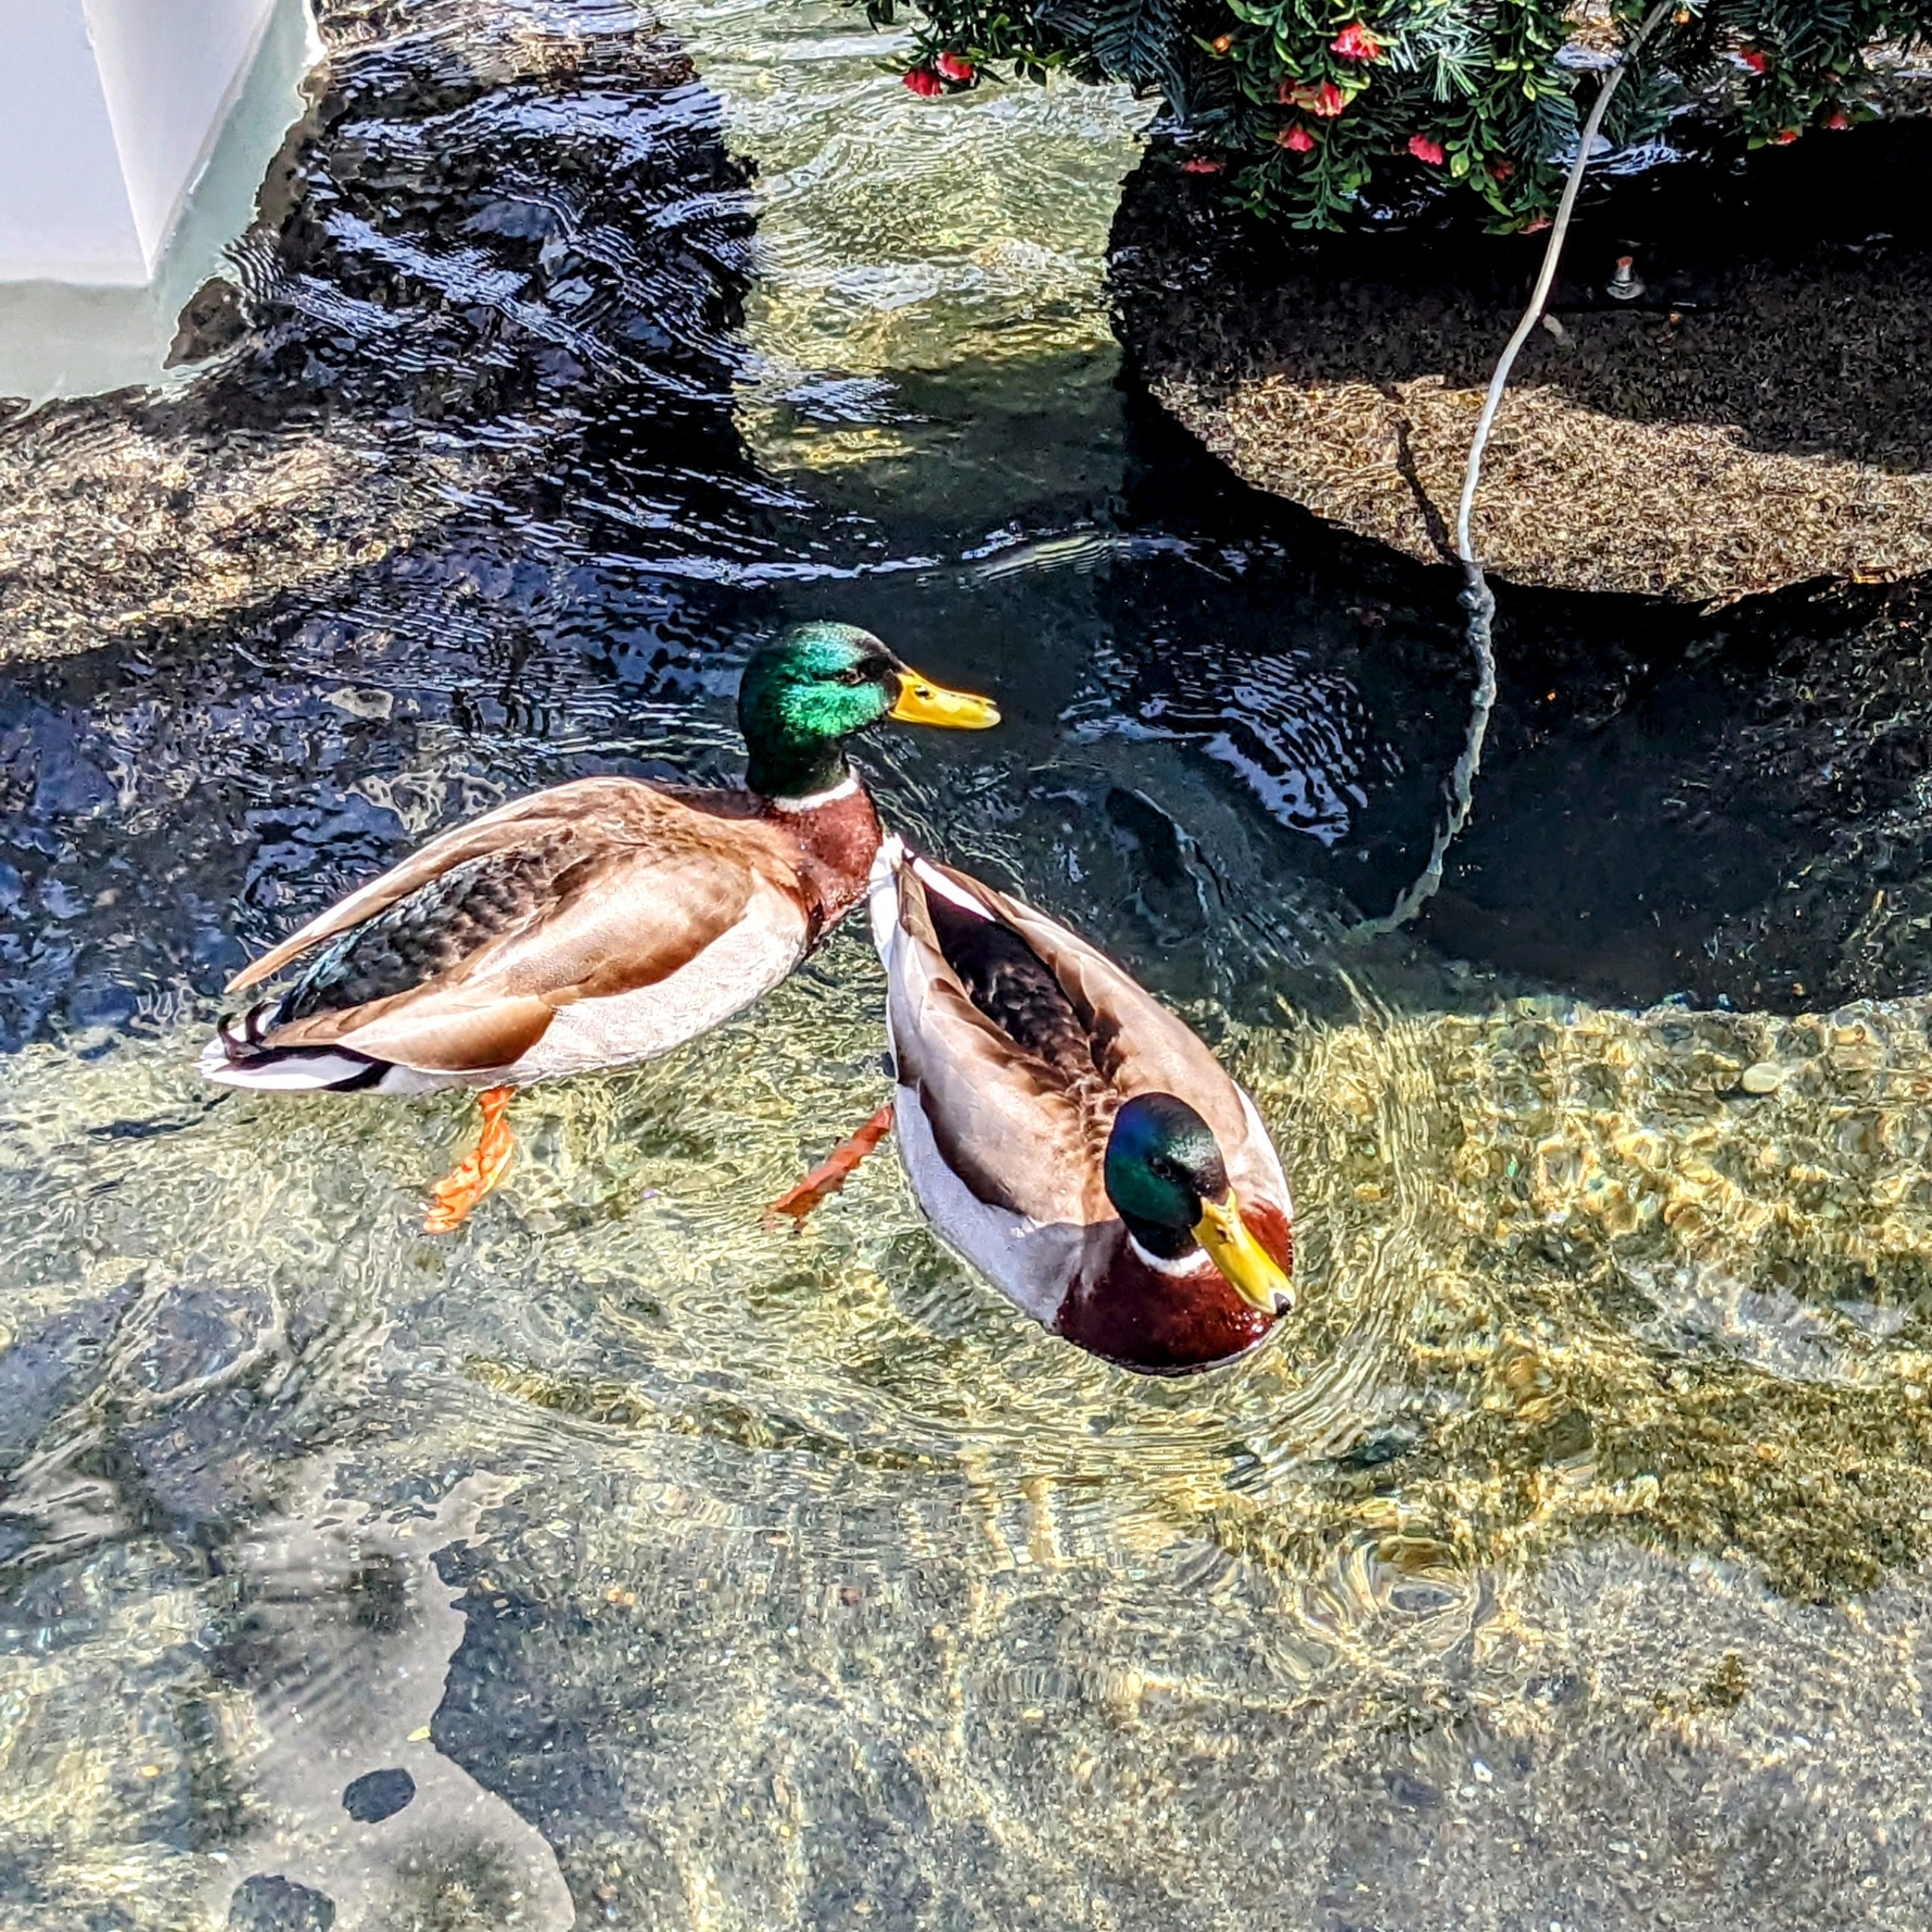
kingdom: Animalia
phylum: Chordata
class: Aves
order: Anseriformes
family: Anatidae
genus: Anas
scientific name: Anas platyrhynchos
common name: Mallard
